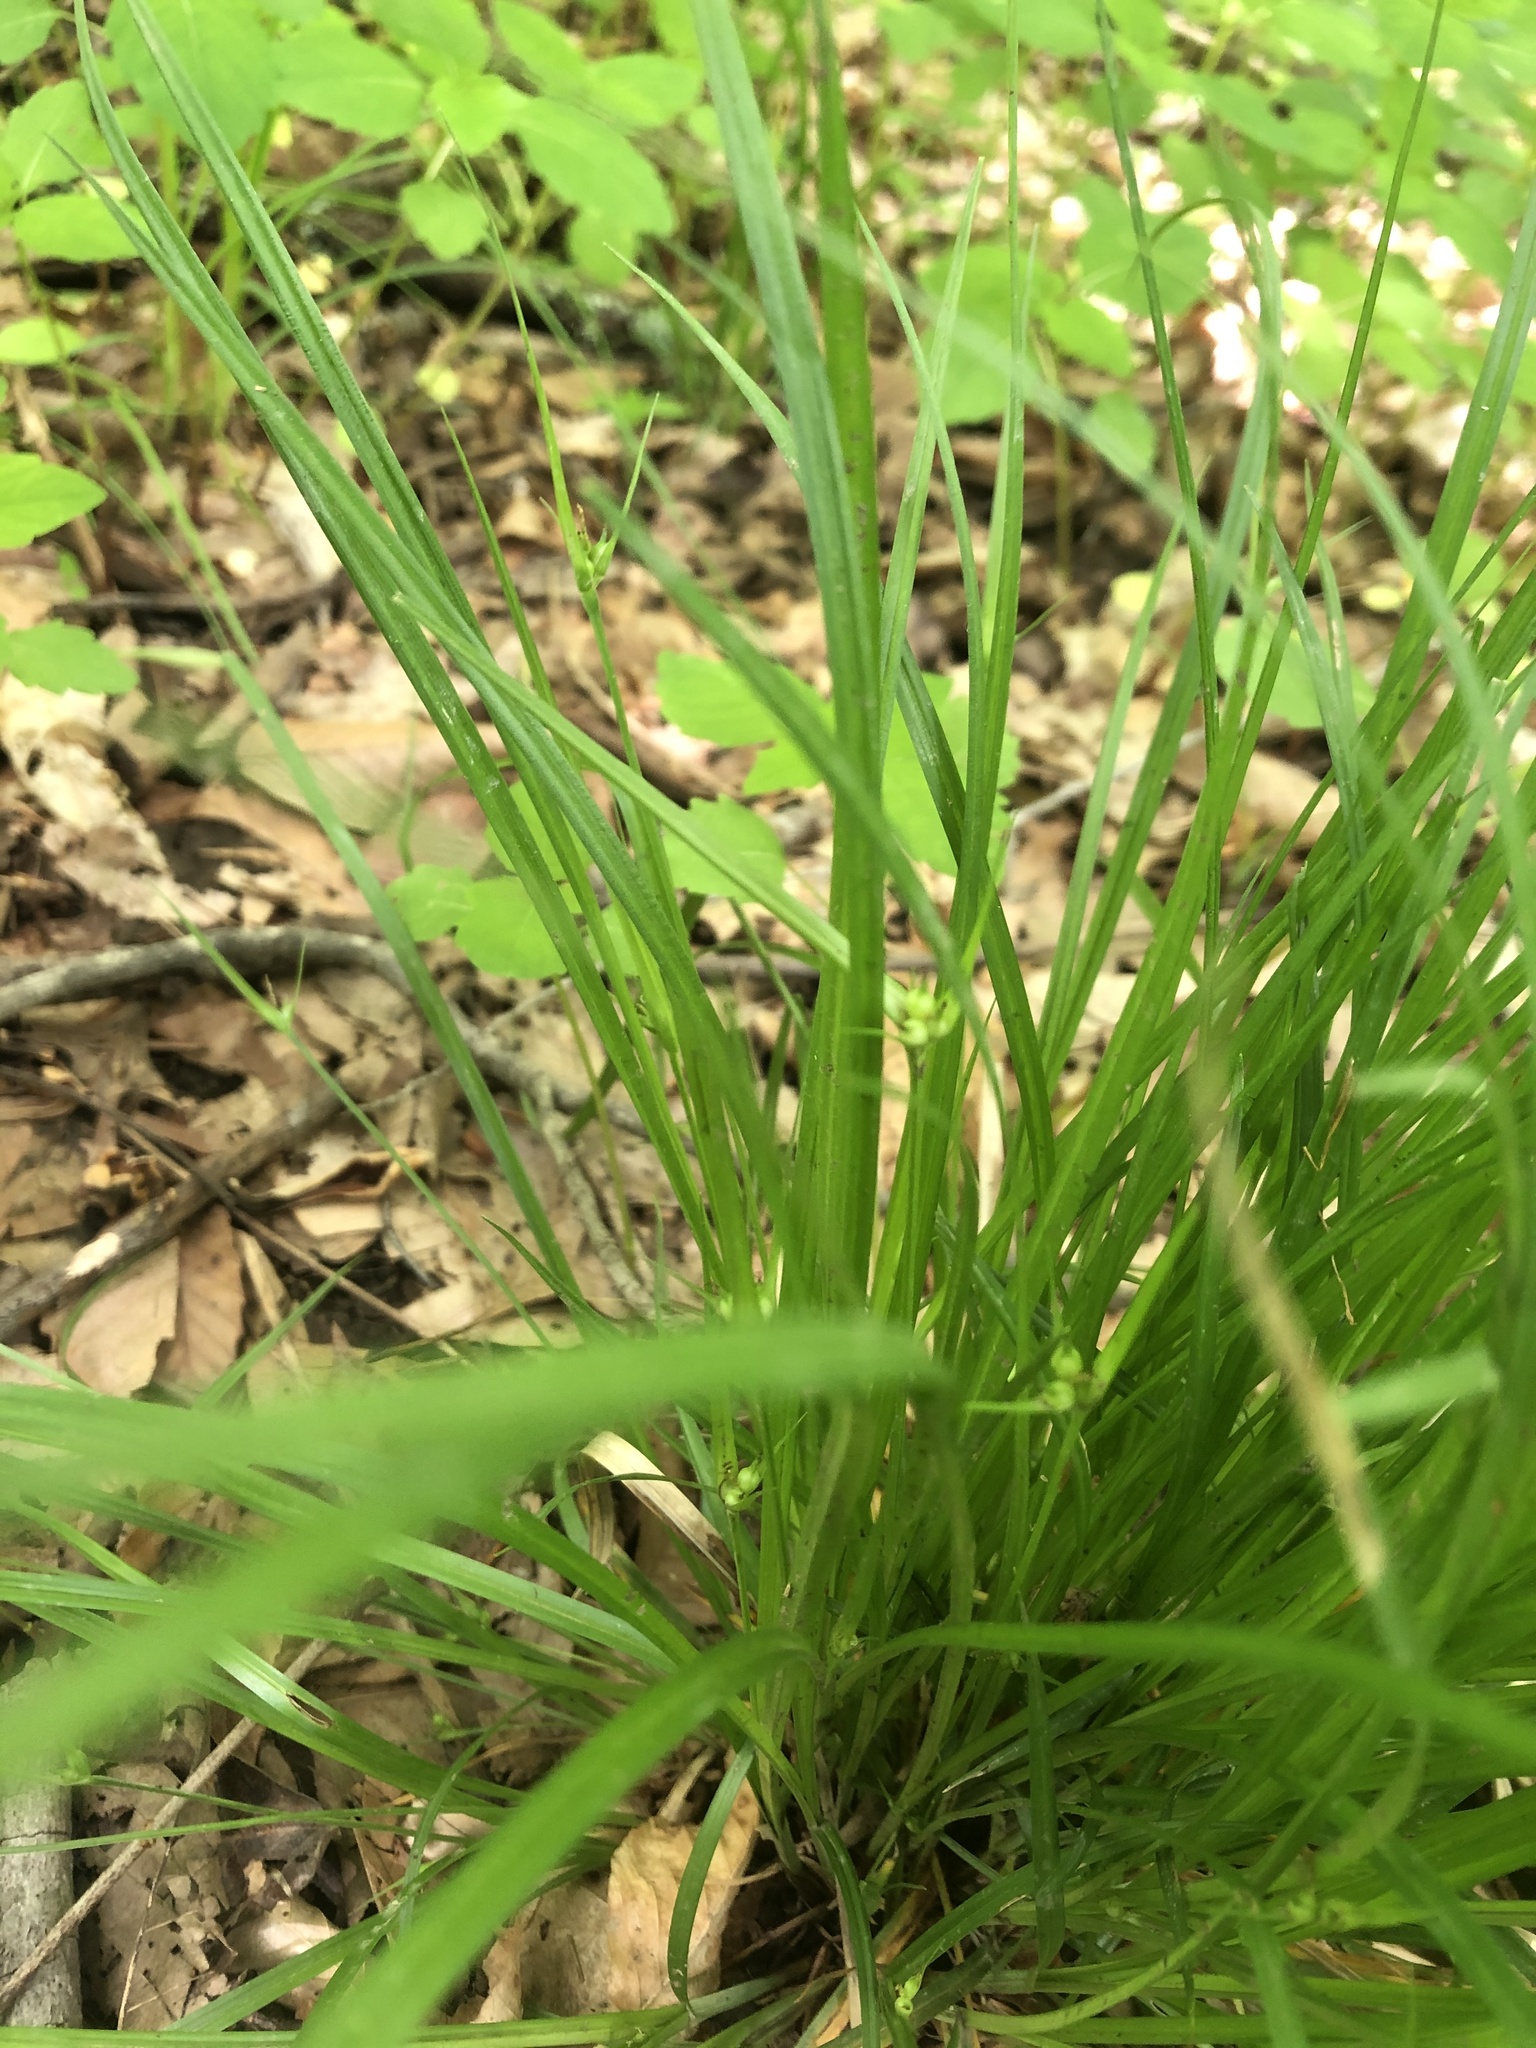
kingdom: Plantae
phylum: Tracheophyta
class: Liliopsida
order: Poales
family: Cyperaceae
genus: Carex
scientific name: Carex jamesii
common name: Grass sedge
